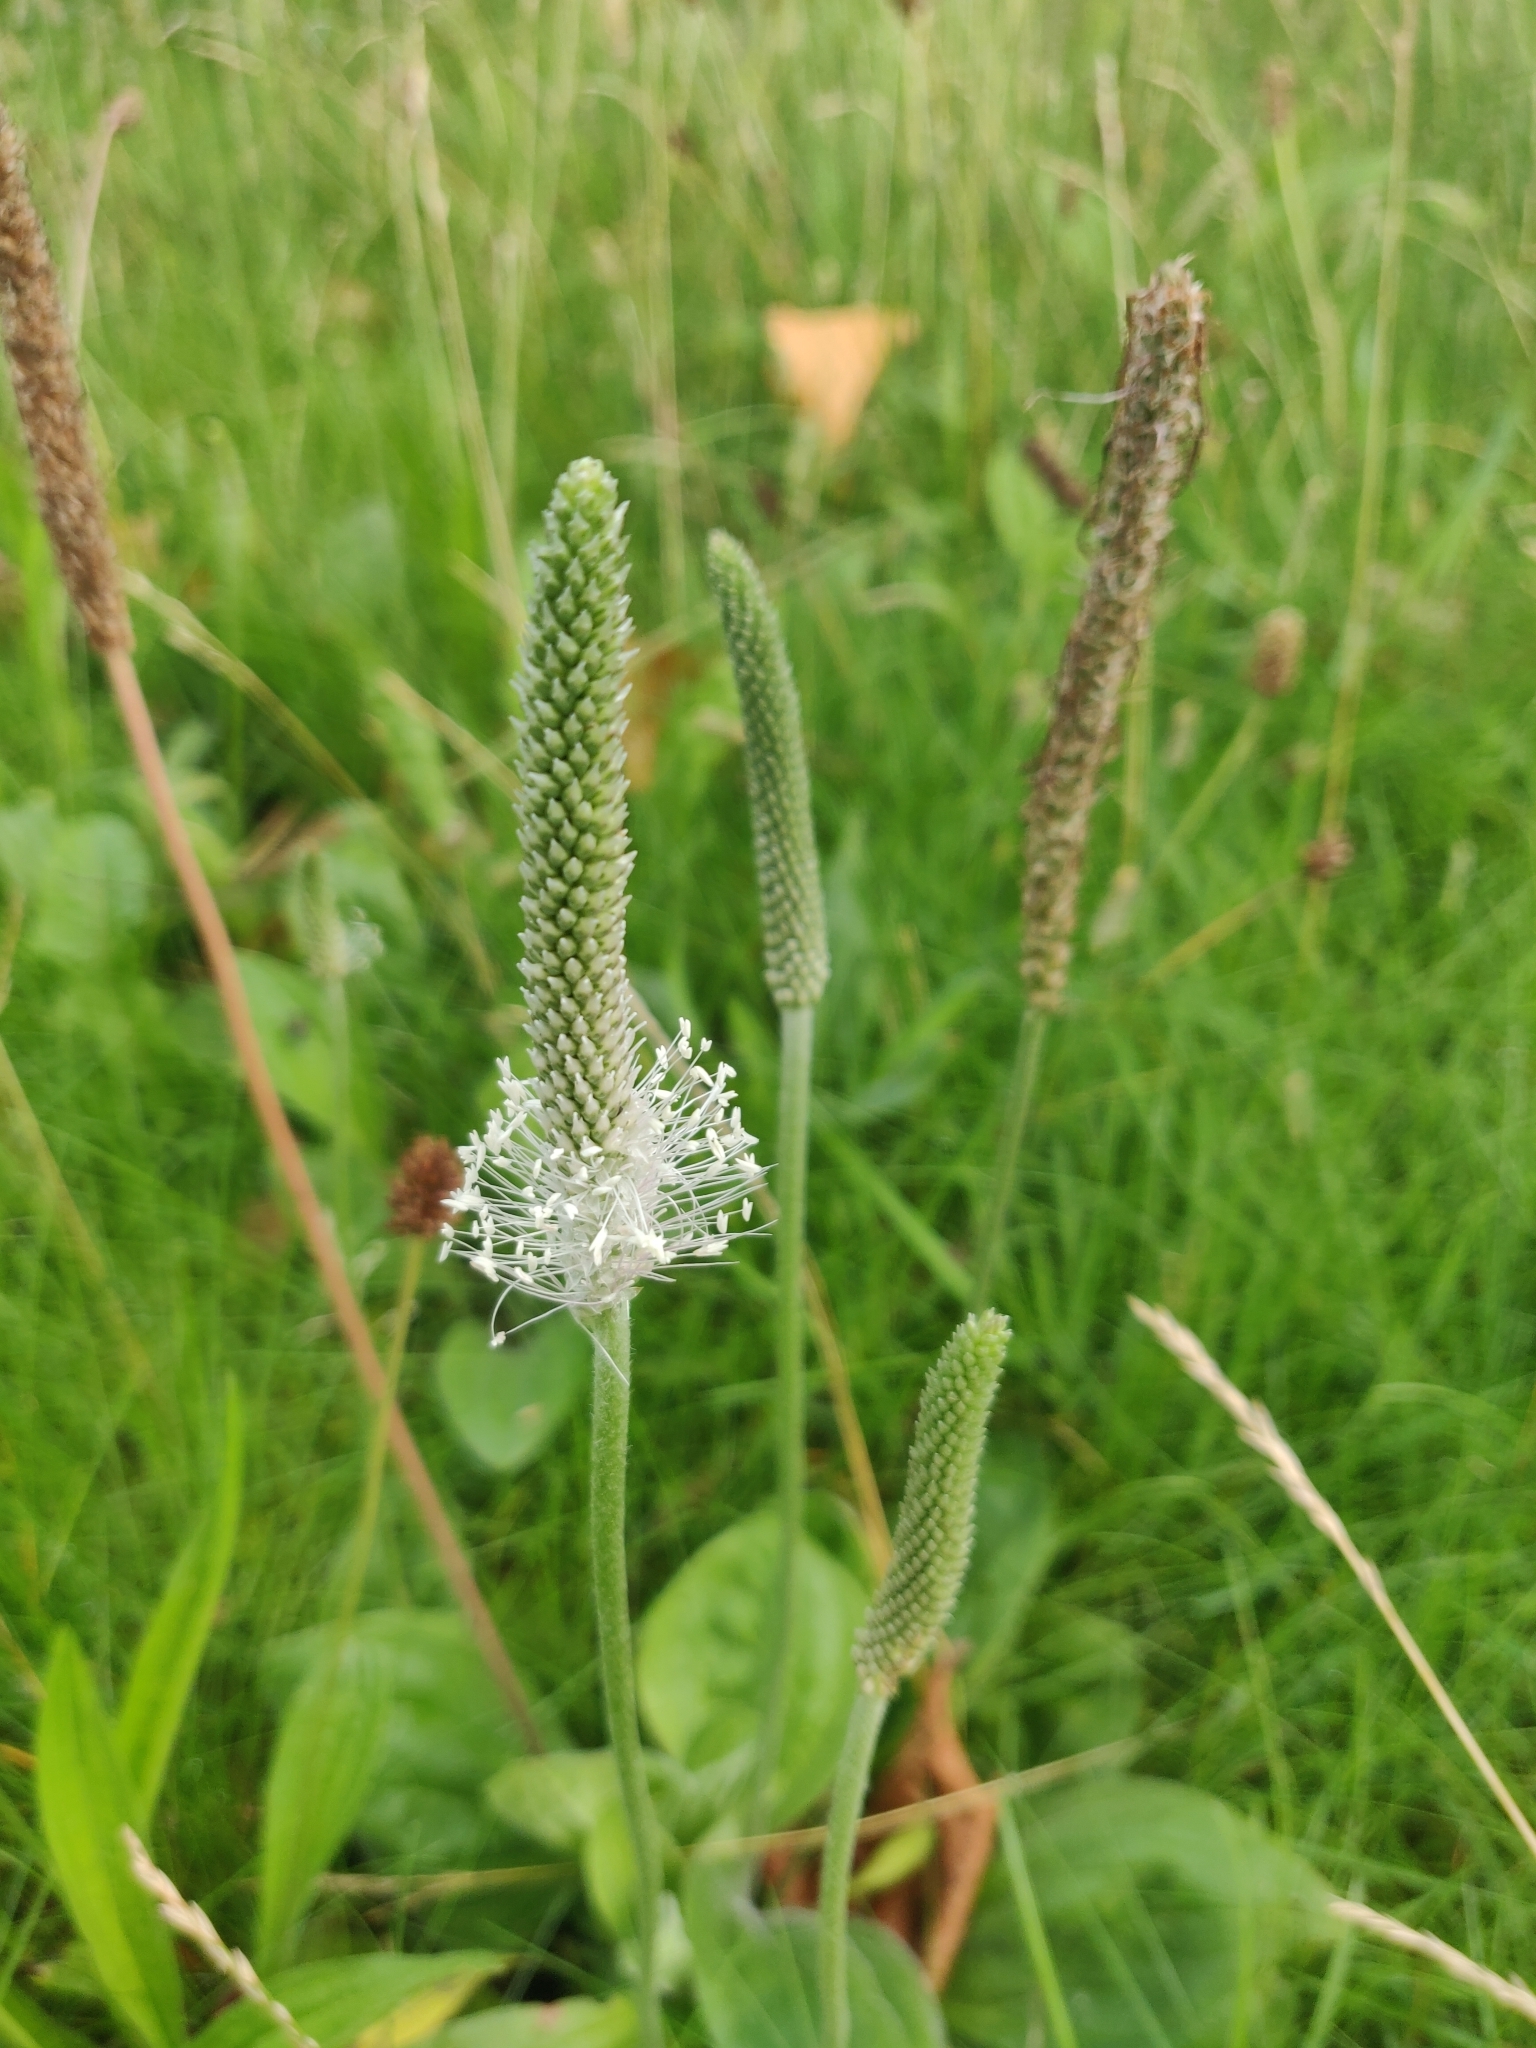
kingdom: Plantae
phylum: Tracheophyta
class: Magnoliopsida
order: Lamiales
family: Plantaginaceae
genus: Plantago
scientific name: Plantago media
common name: Hoary plantain
